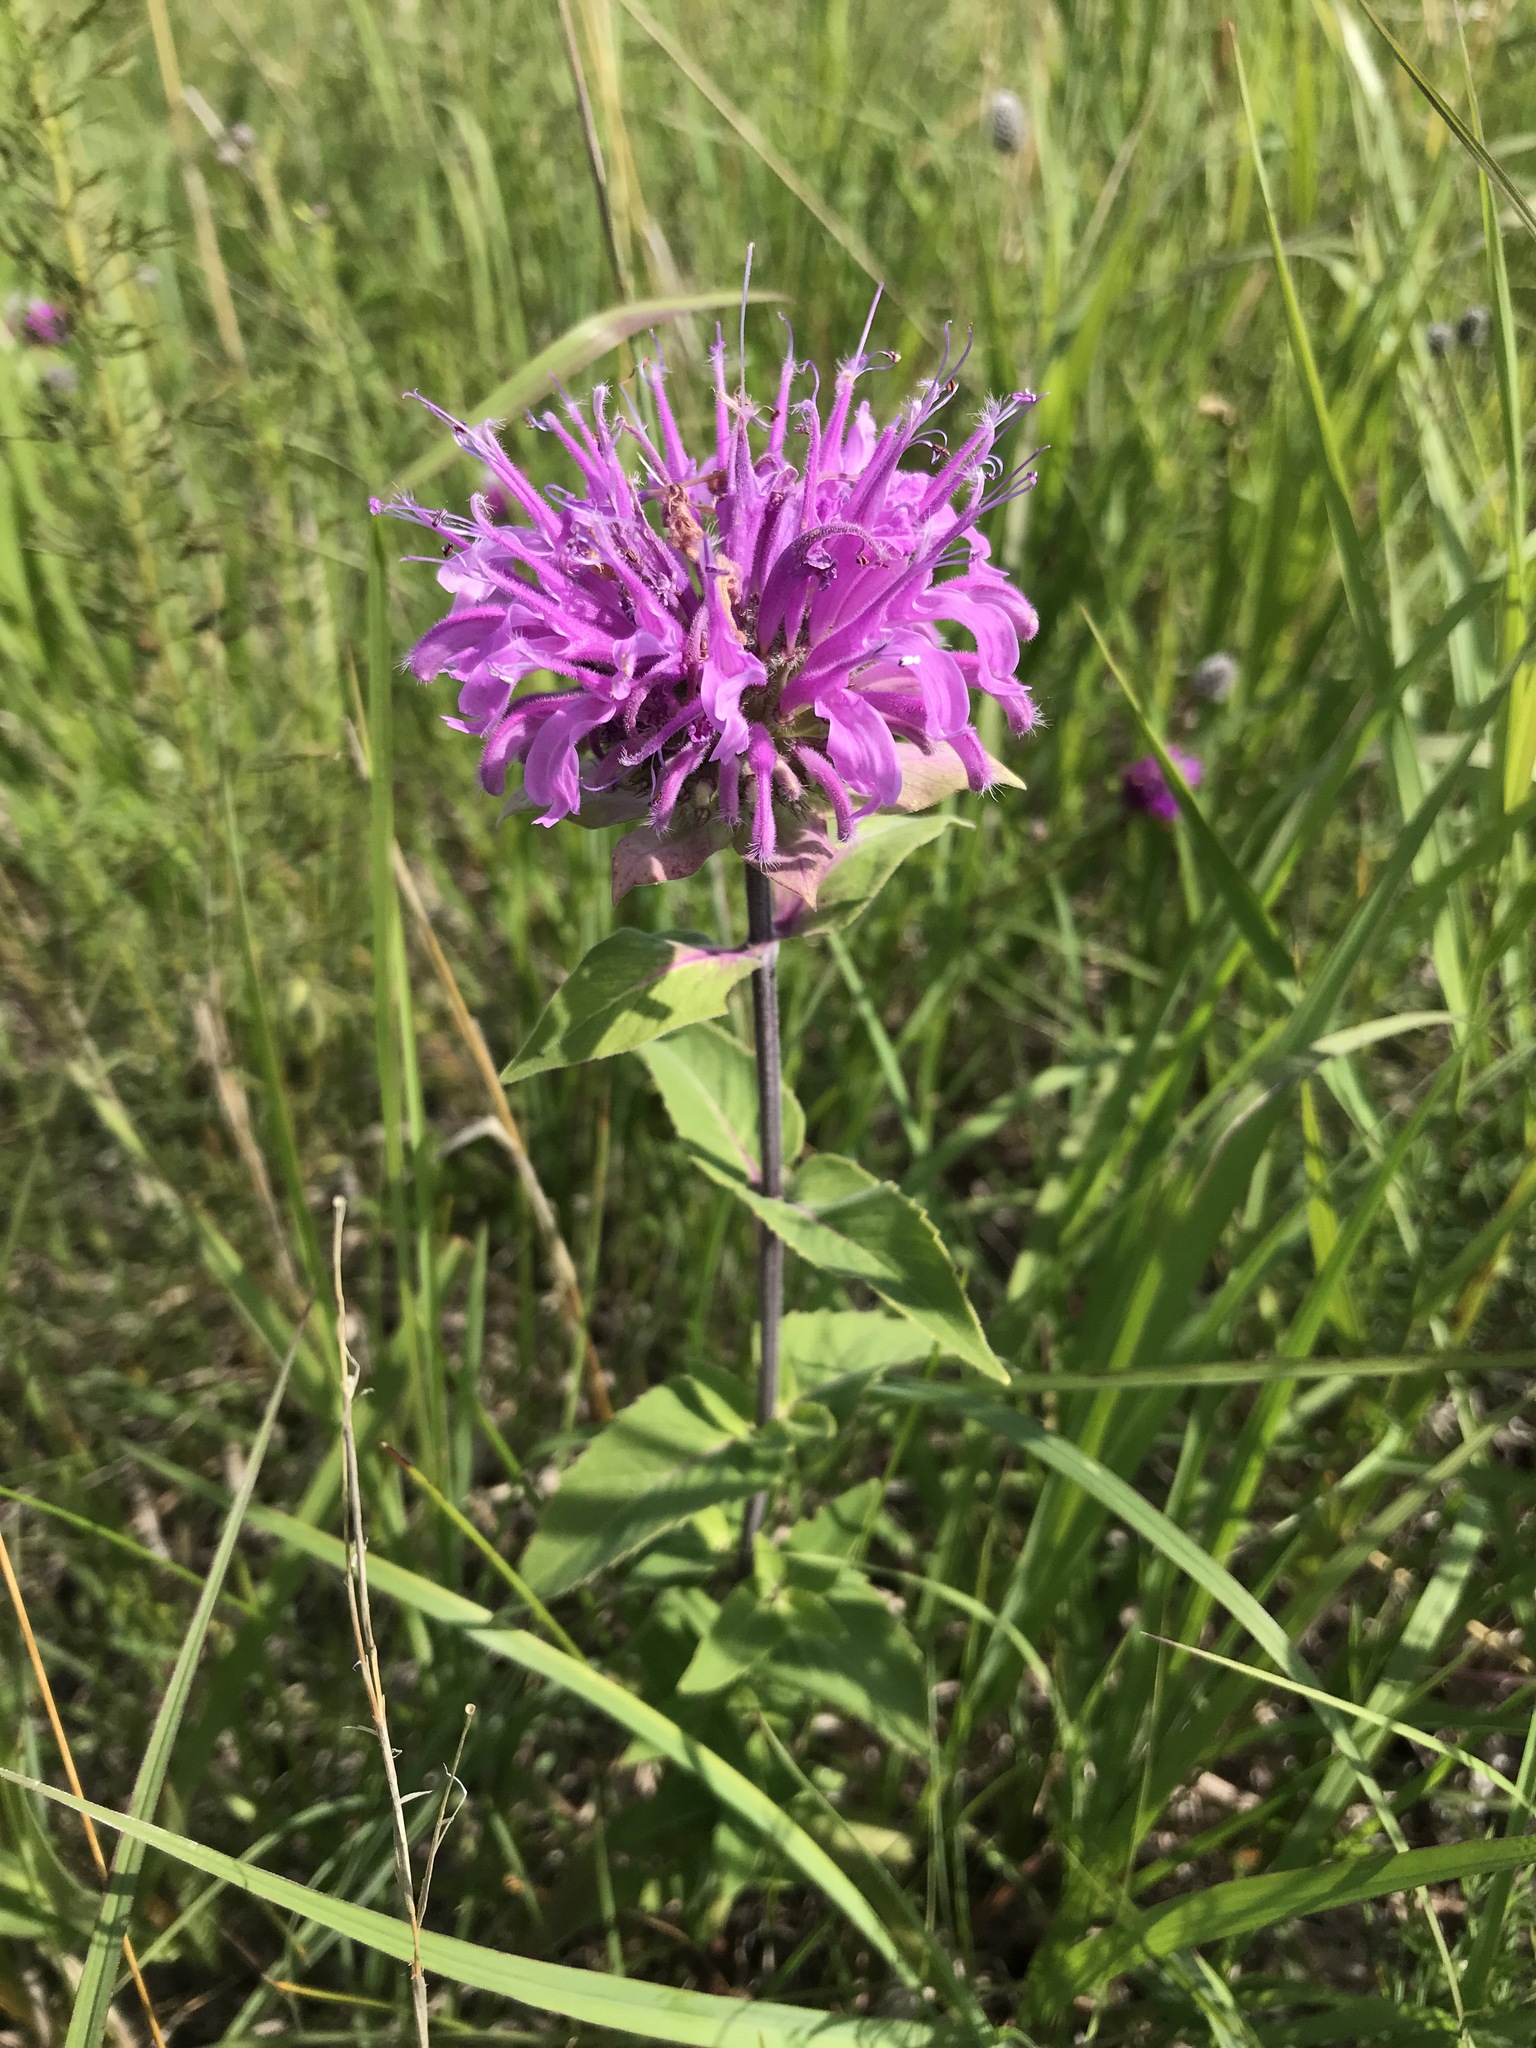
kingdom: Plantae
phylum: Tracheophyta
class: Magnoliopsida
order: Lamiales
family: Lamiaceae
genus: Monarda
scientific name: Monarda fistulosa
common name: Purple beebalm
